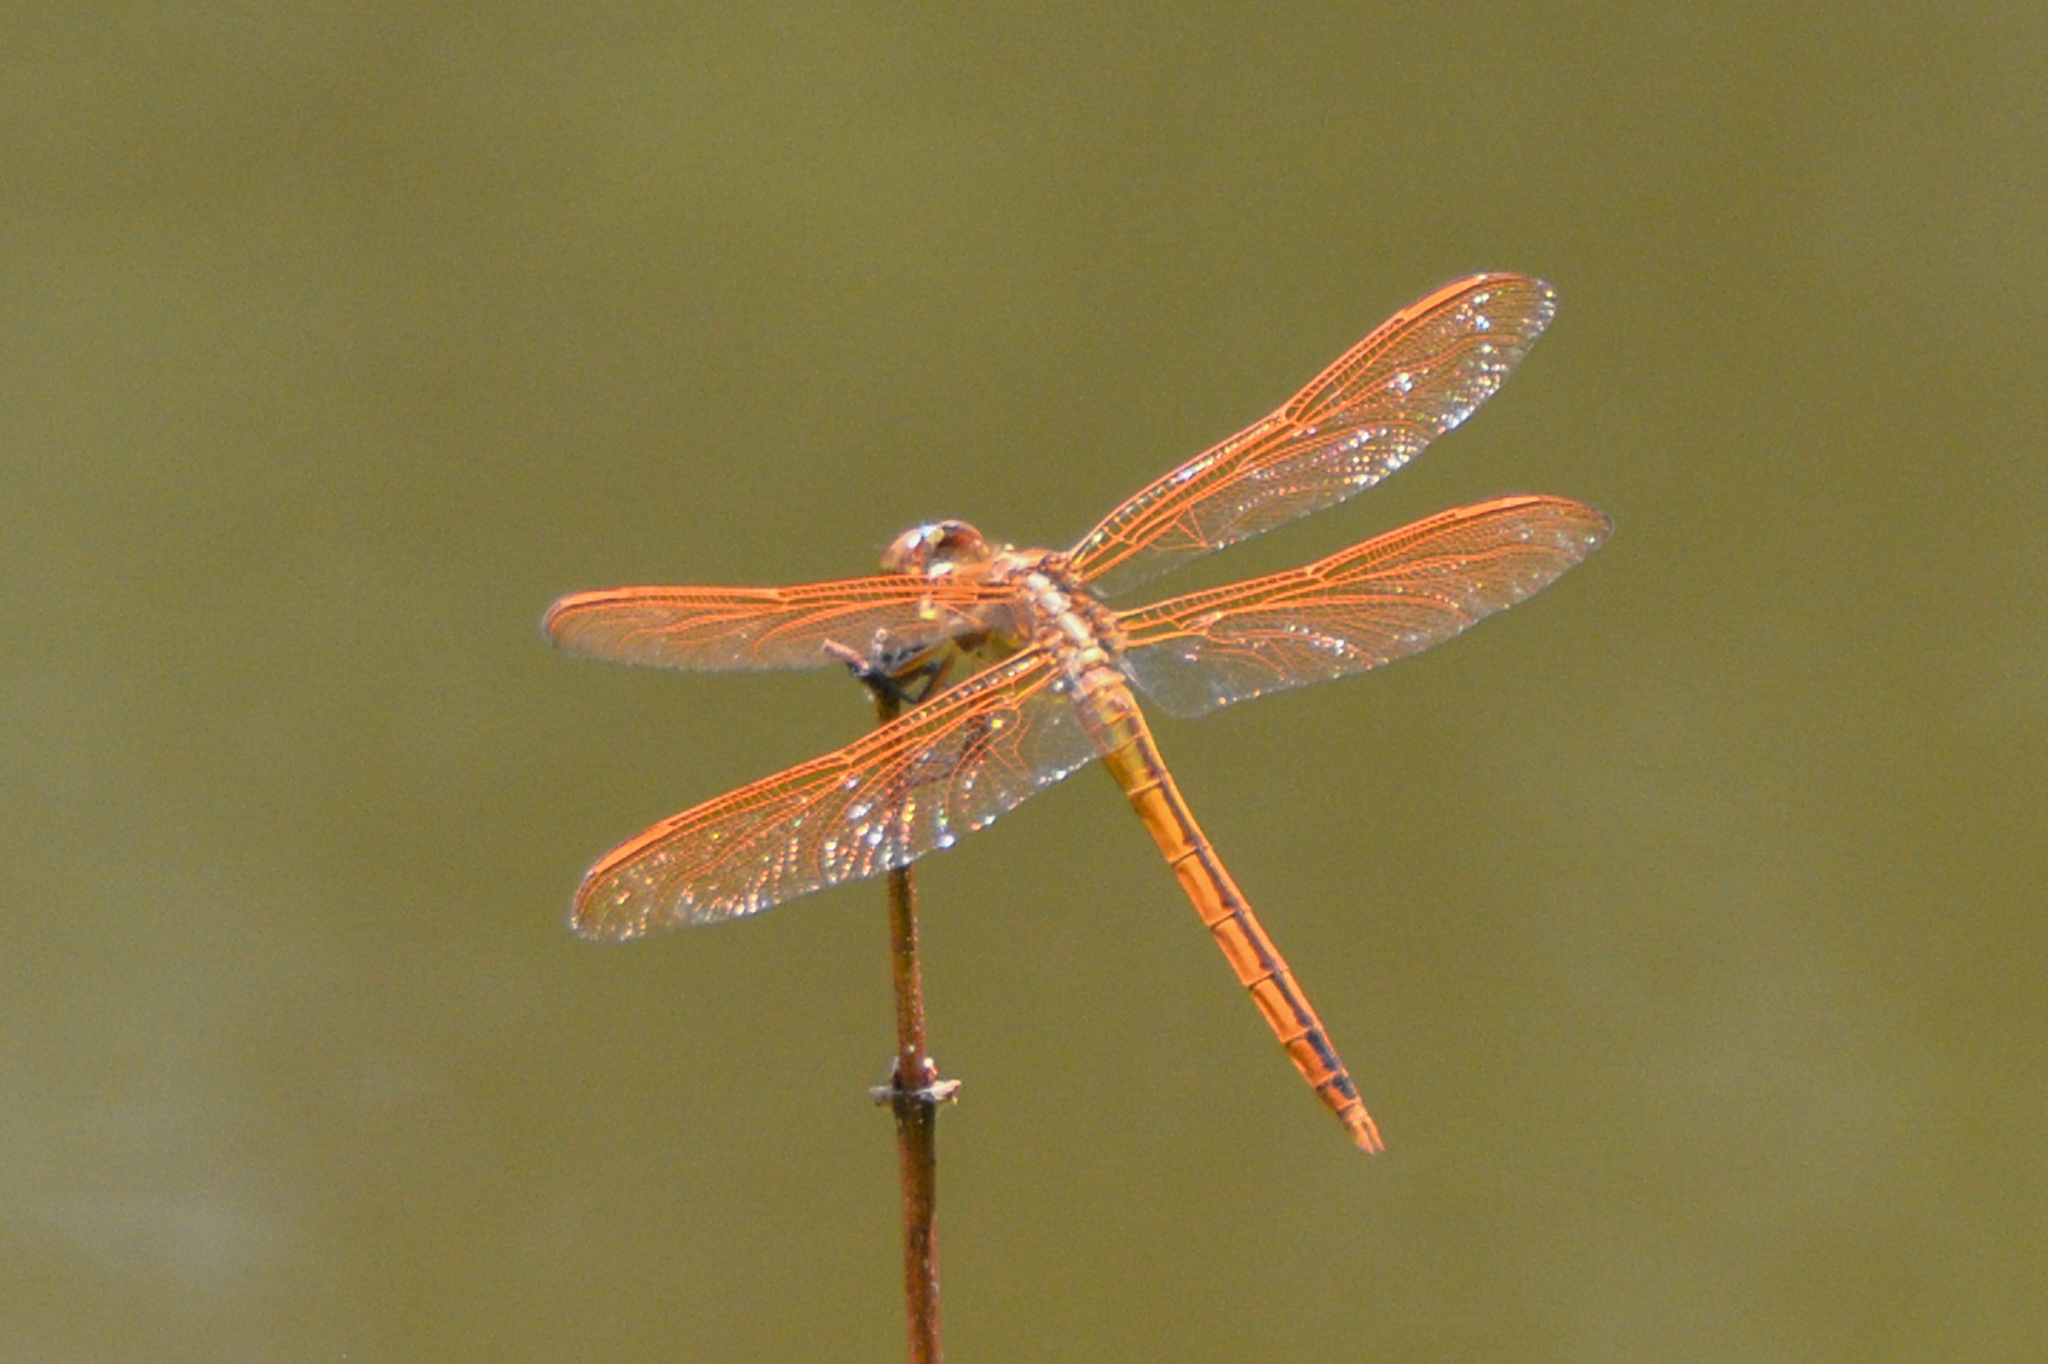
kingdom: Animalia
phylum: Arthropoda
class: Insecta
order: Odonata
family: Libellulidae
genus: Libellula
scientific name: Libellula auripennis
